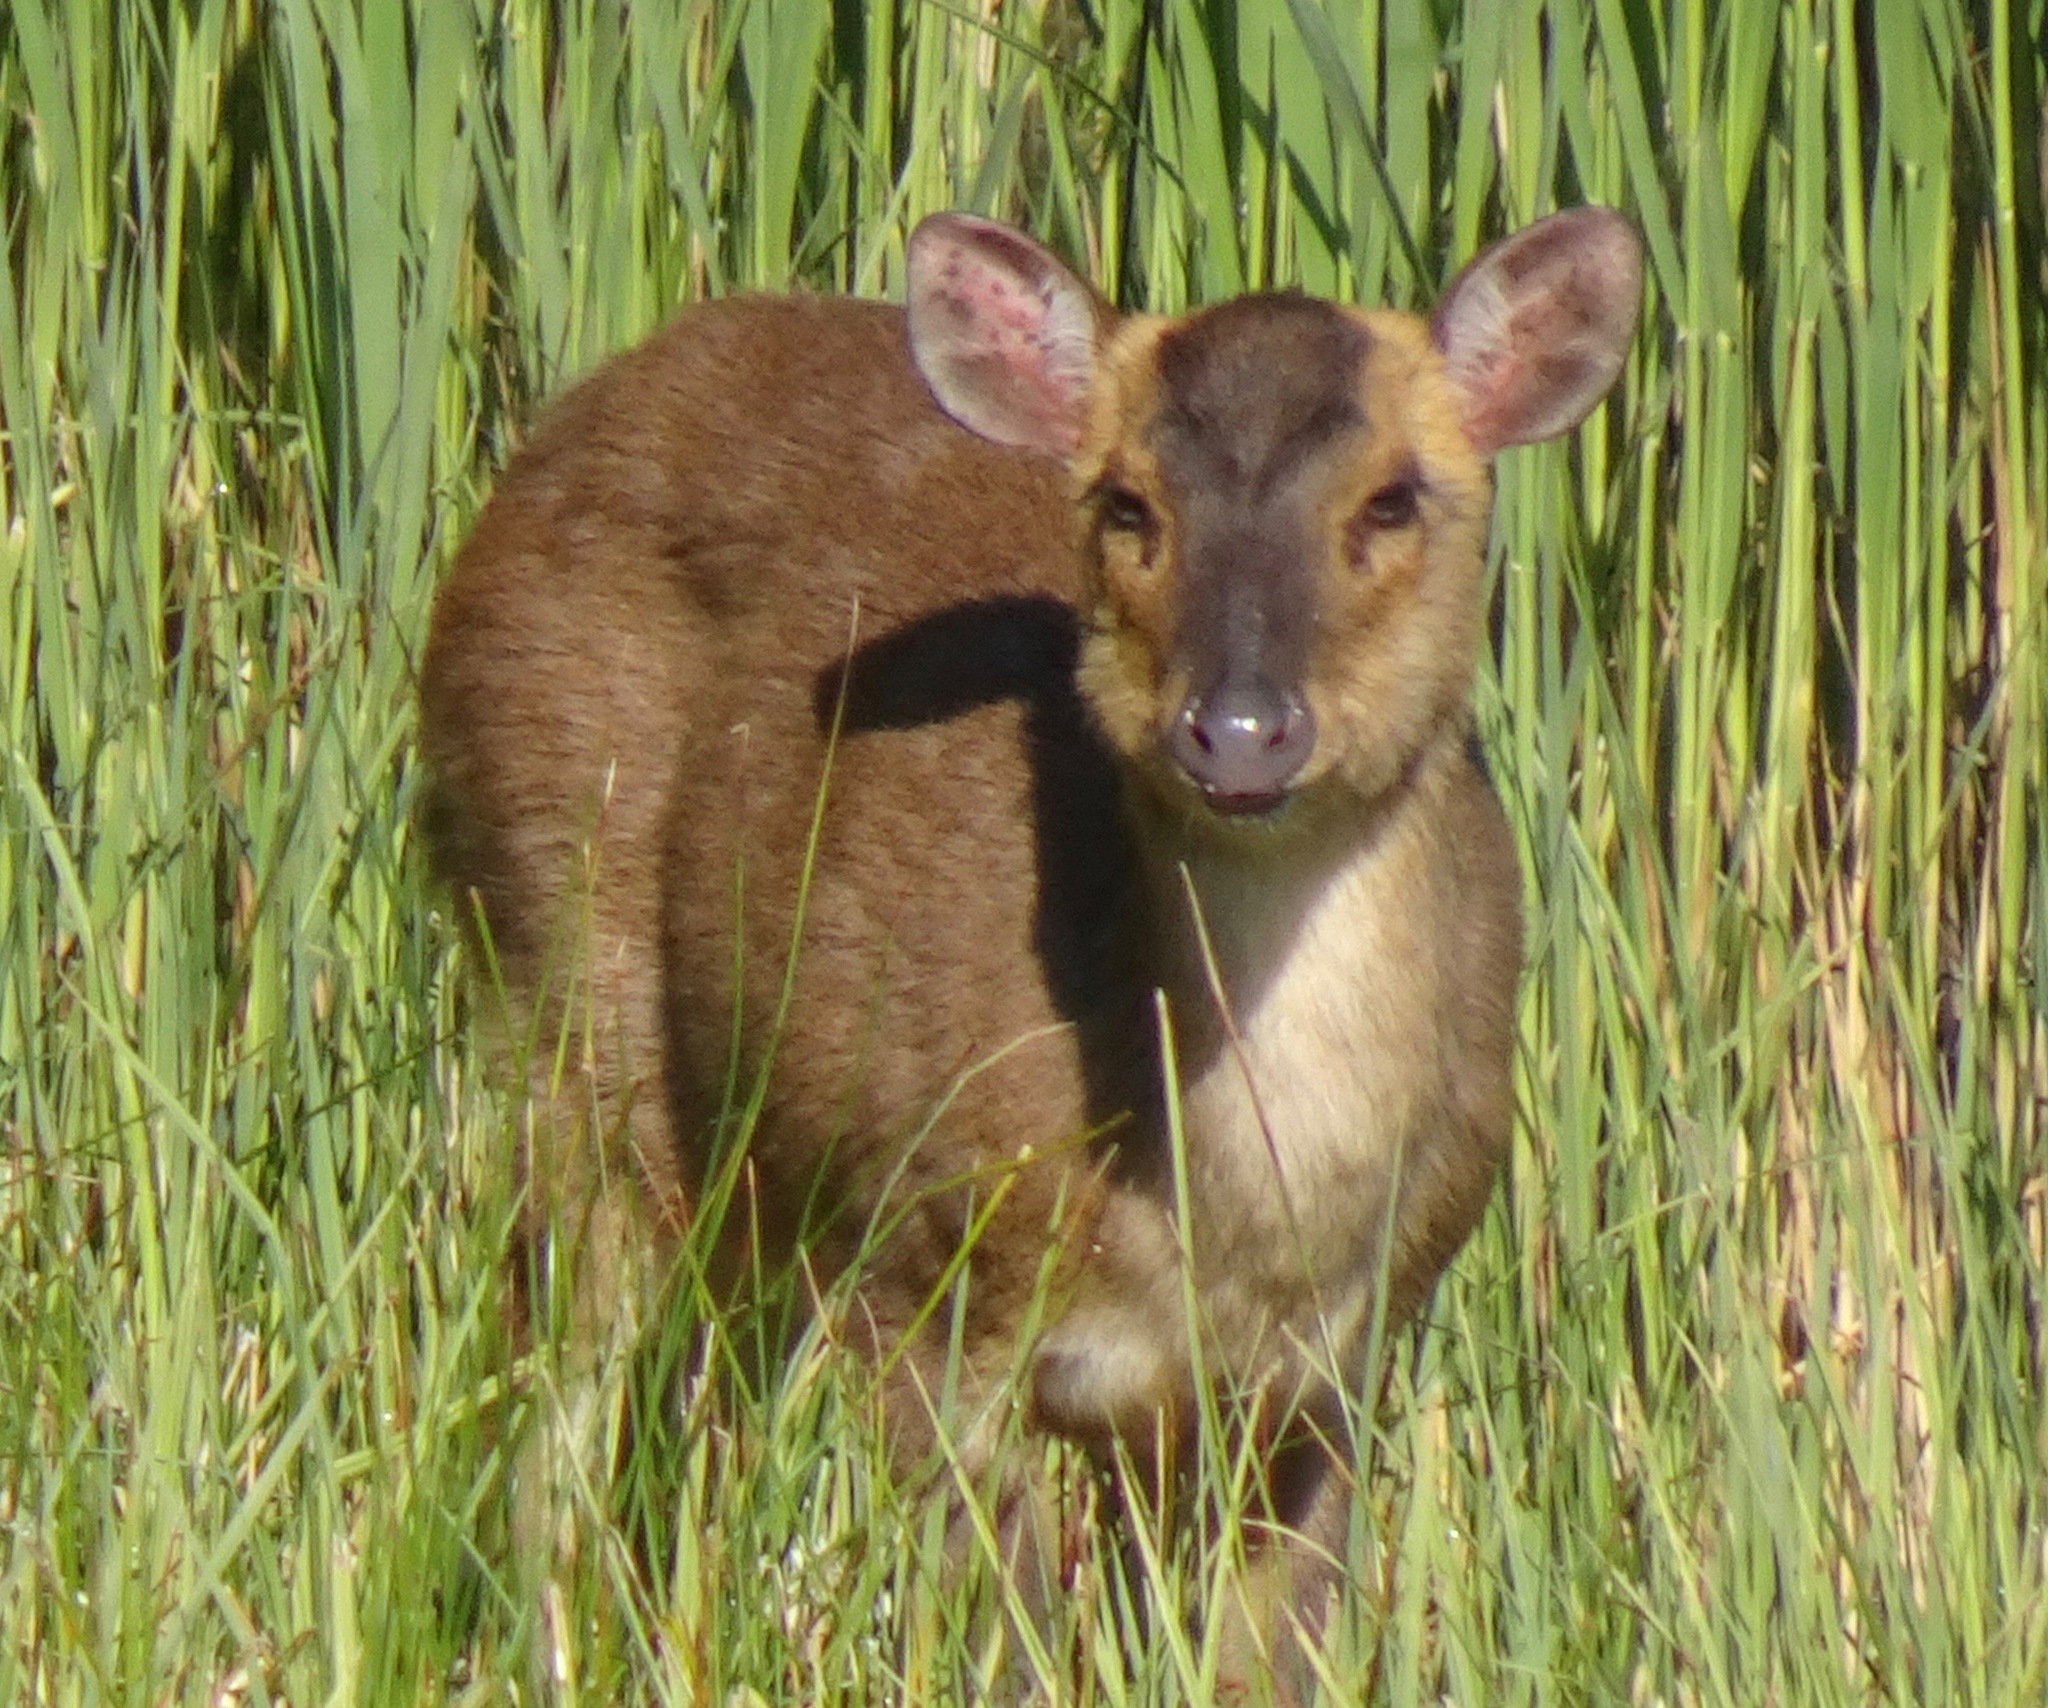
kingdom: Animalia
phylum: Chordata
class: Mammalia
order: Artiodactyla
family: Cervidae
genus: Muntiacus
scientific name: Muntiacus reevesi
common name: Reeves' muntjac
